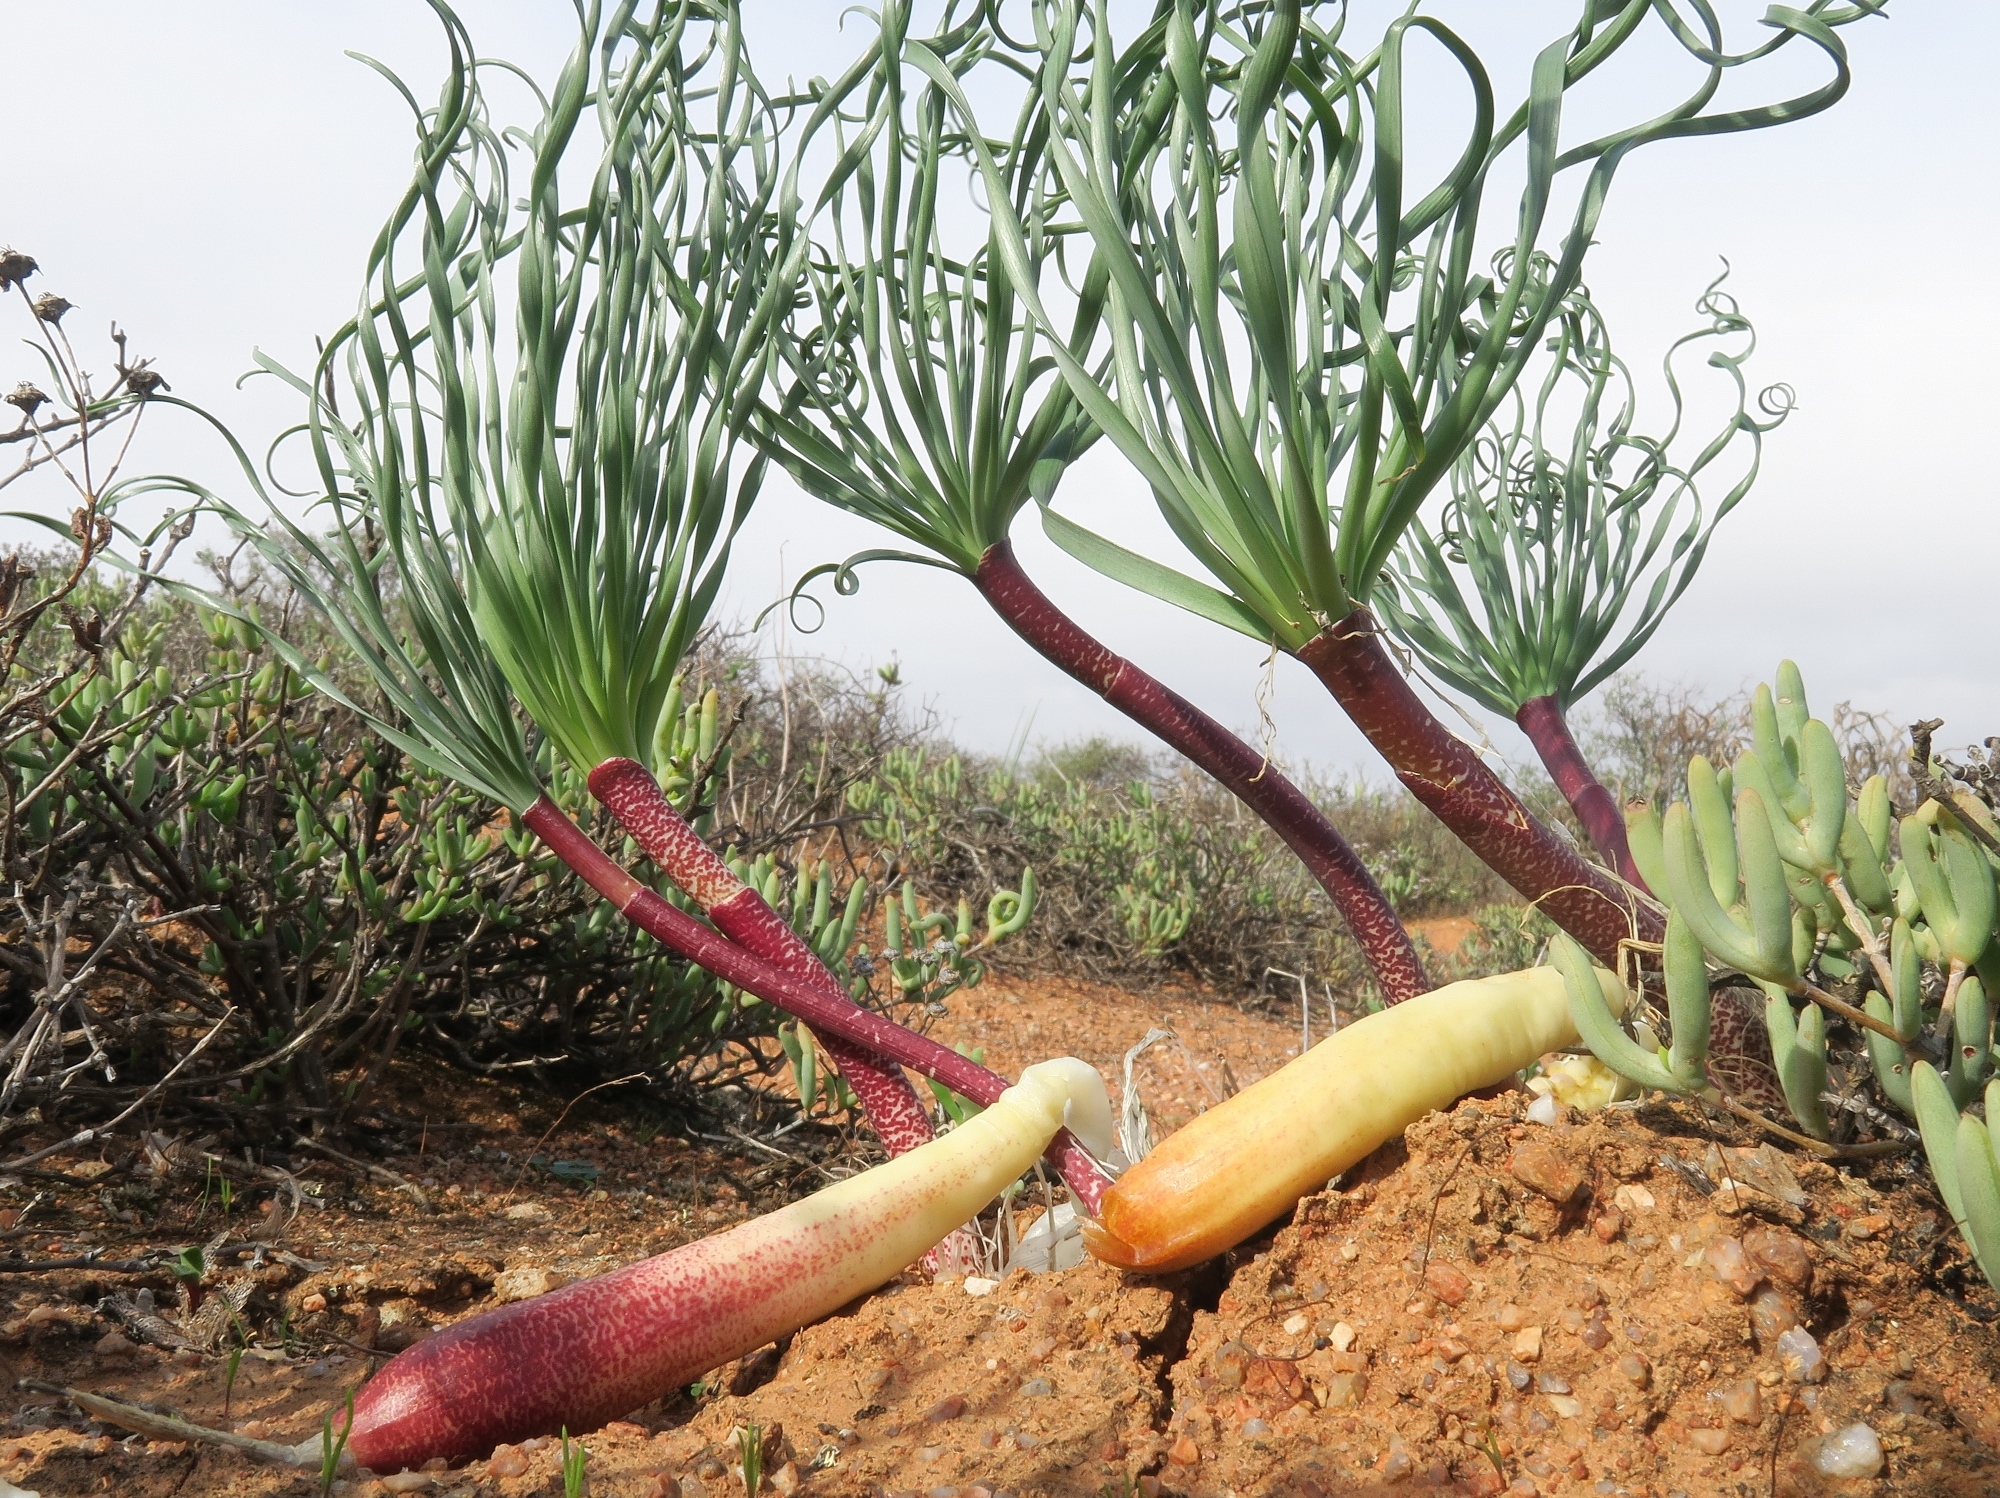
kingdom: Plantae
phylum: Tracheophyta
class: Liliopsida
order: Asparagales
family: Amaryllidaceae
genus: Gethyllis
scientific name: Gethyllis britteniana
